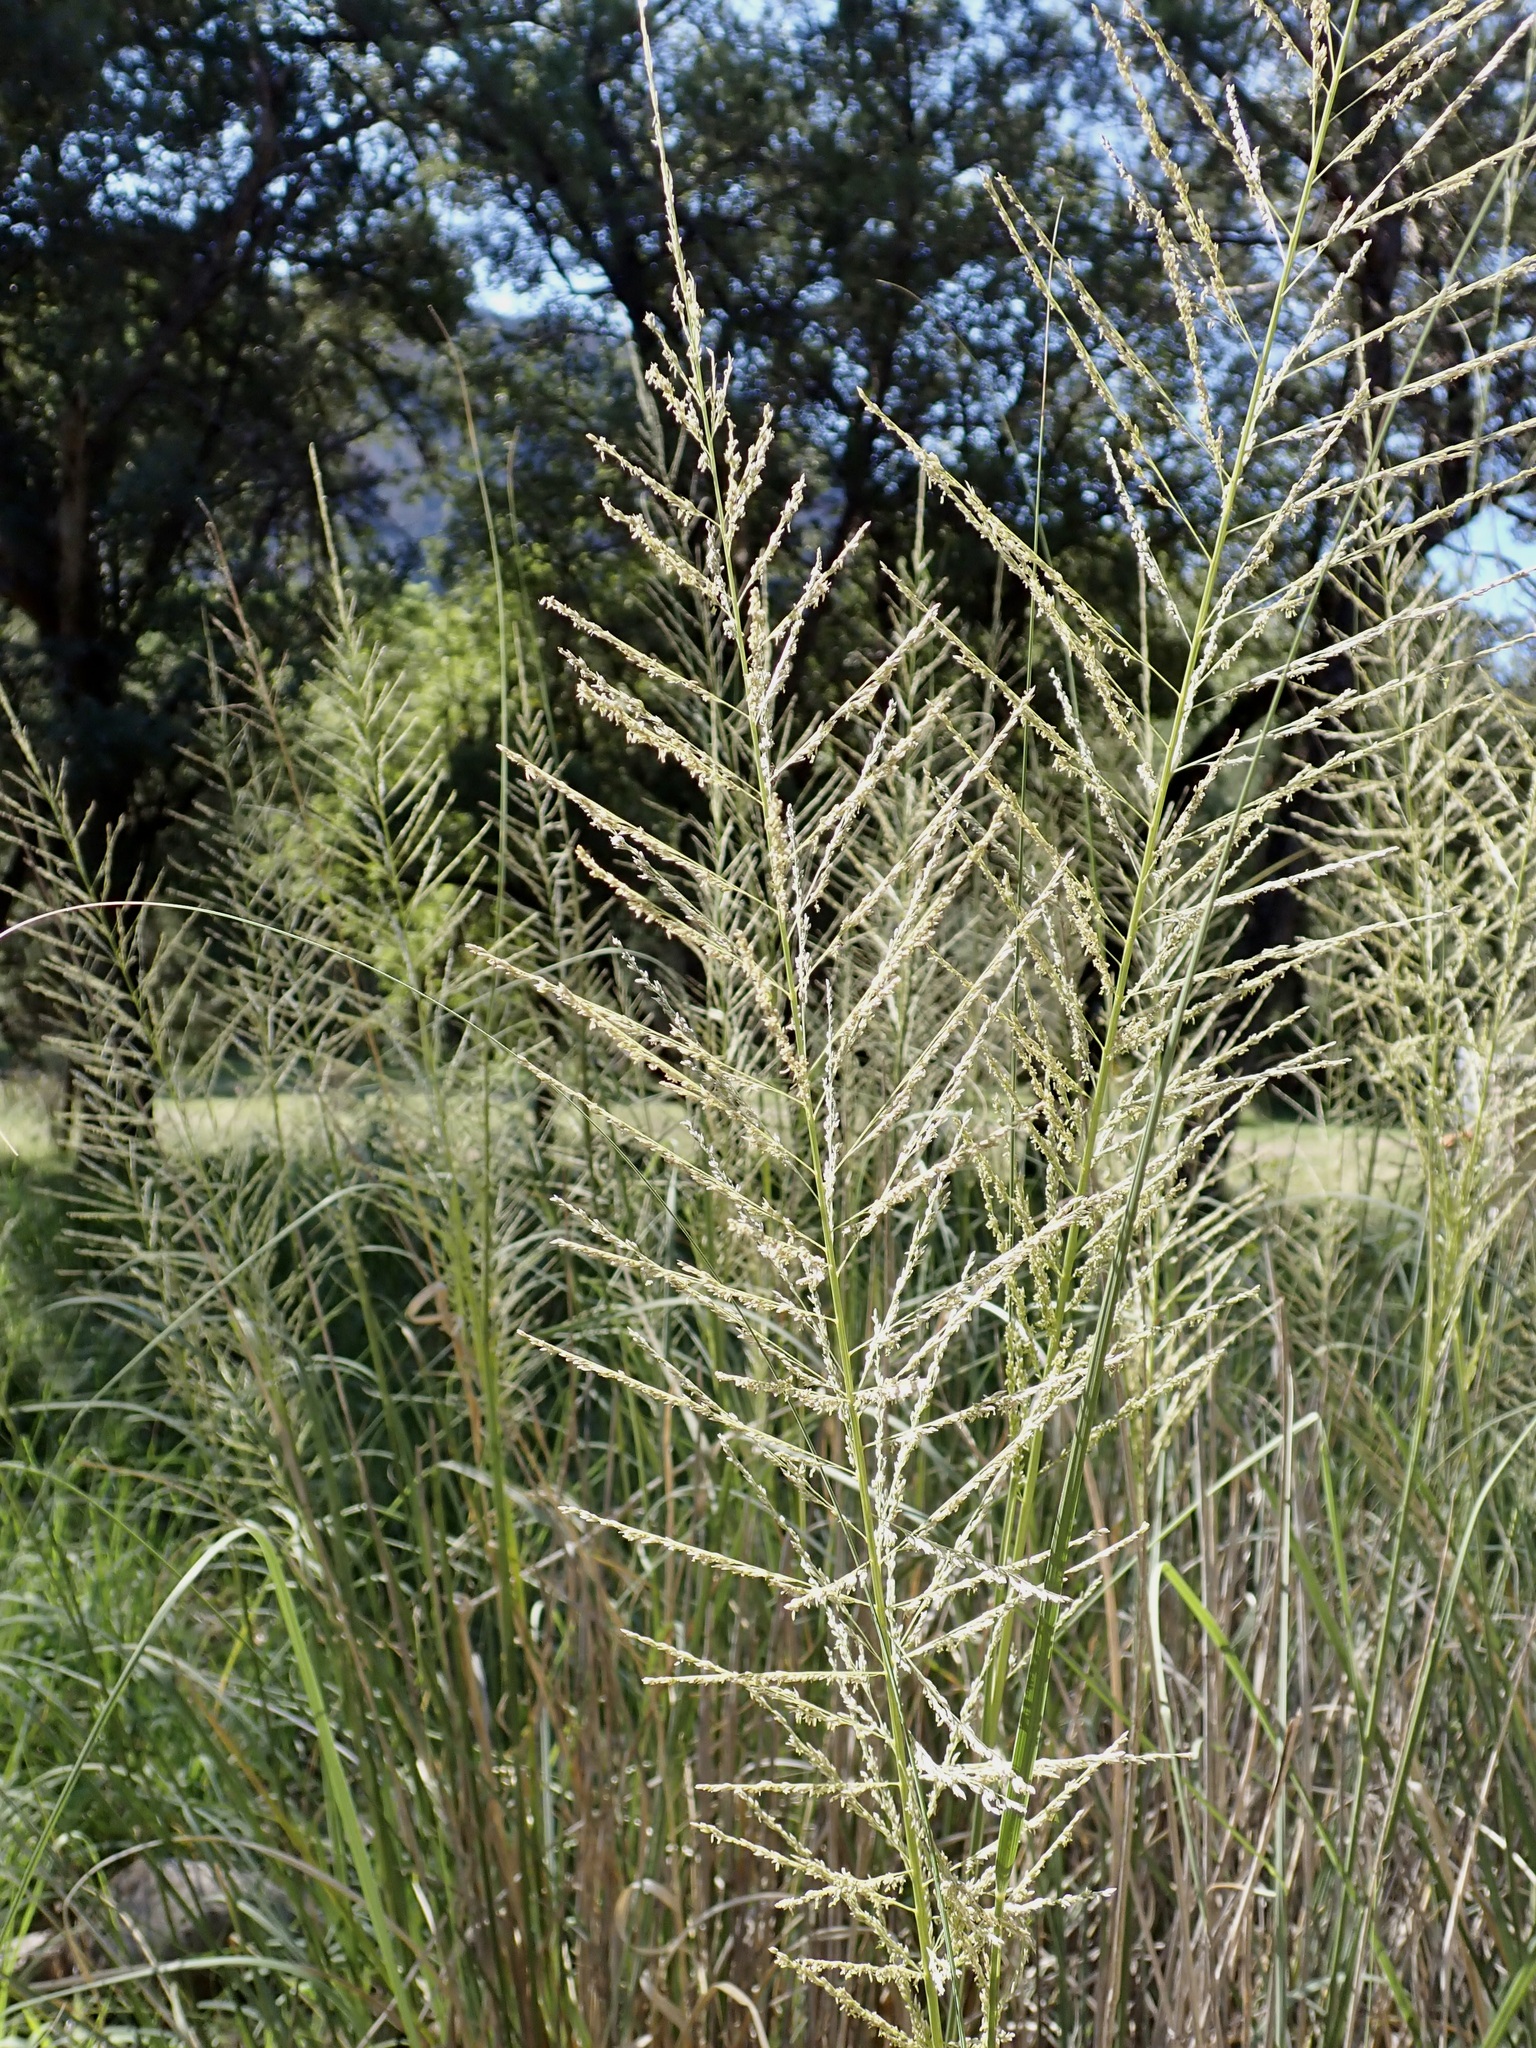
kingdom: Plantae
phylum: Tracheophyta
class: Liliopsida
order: Poales
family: Poaceae
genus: Sporobolus
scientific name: Sporobolus wrightii
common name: Big alkali sacaton
